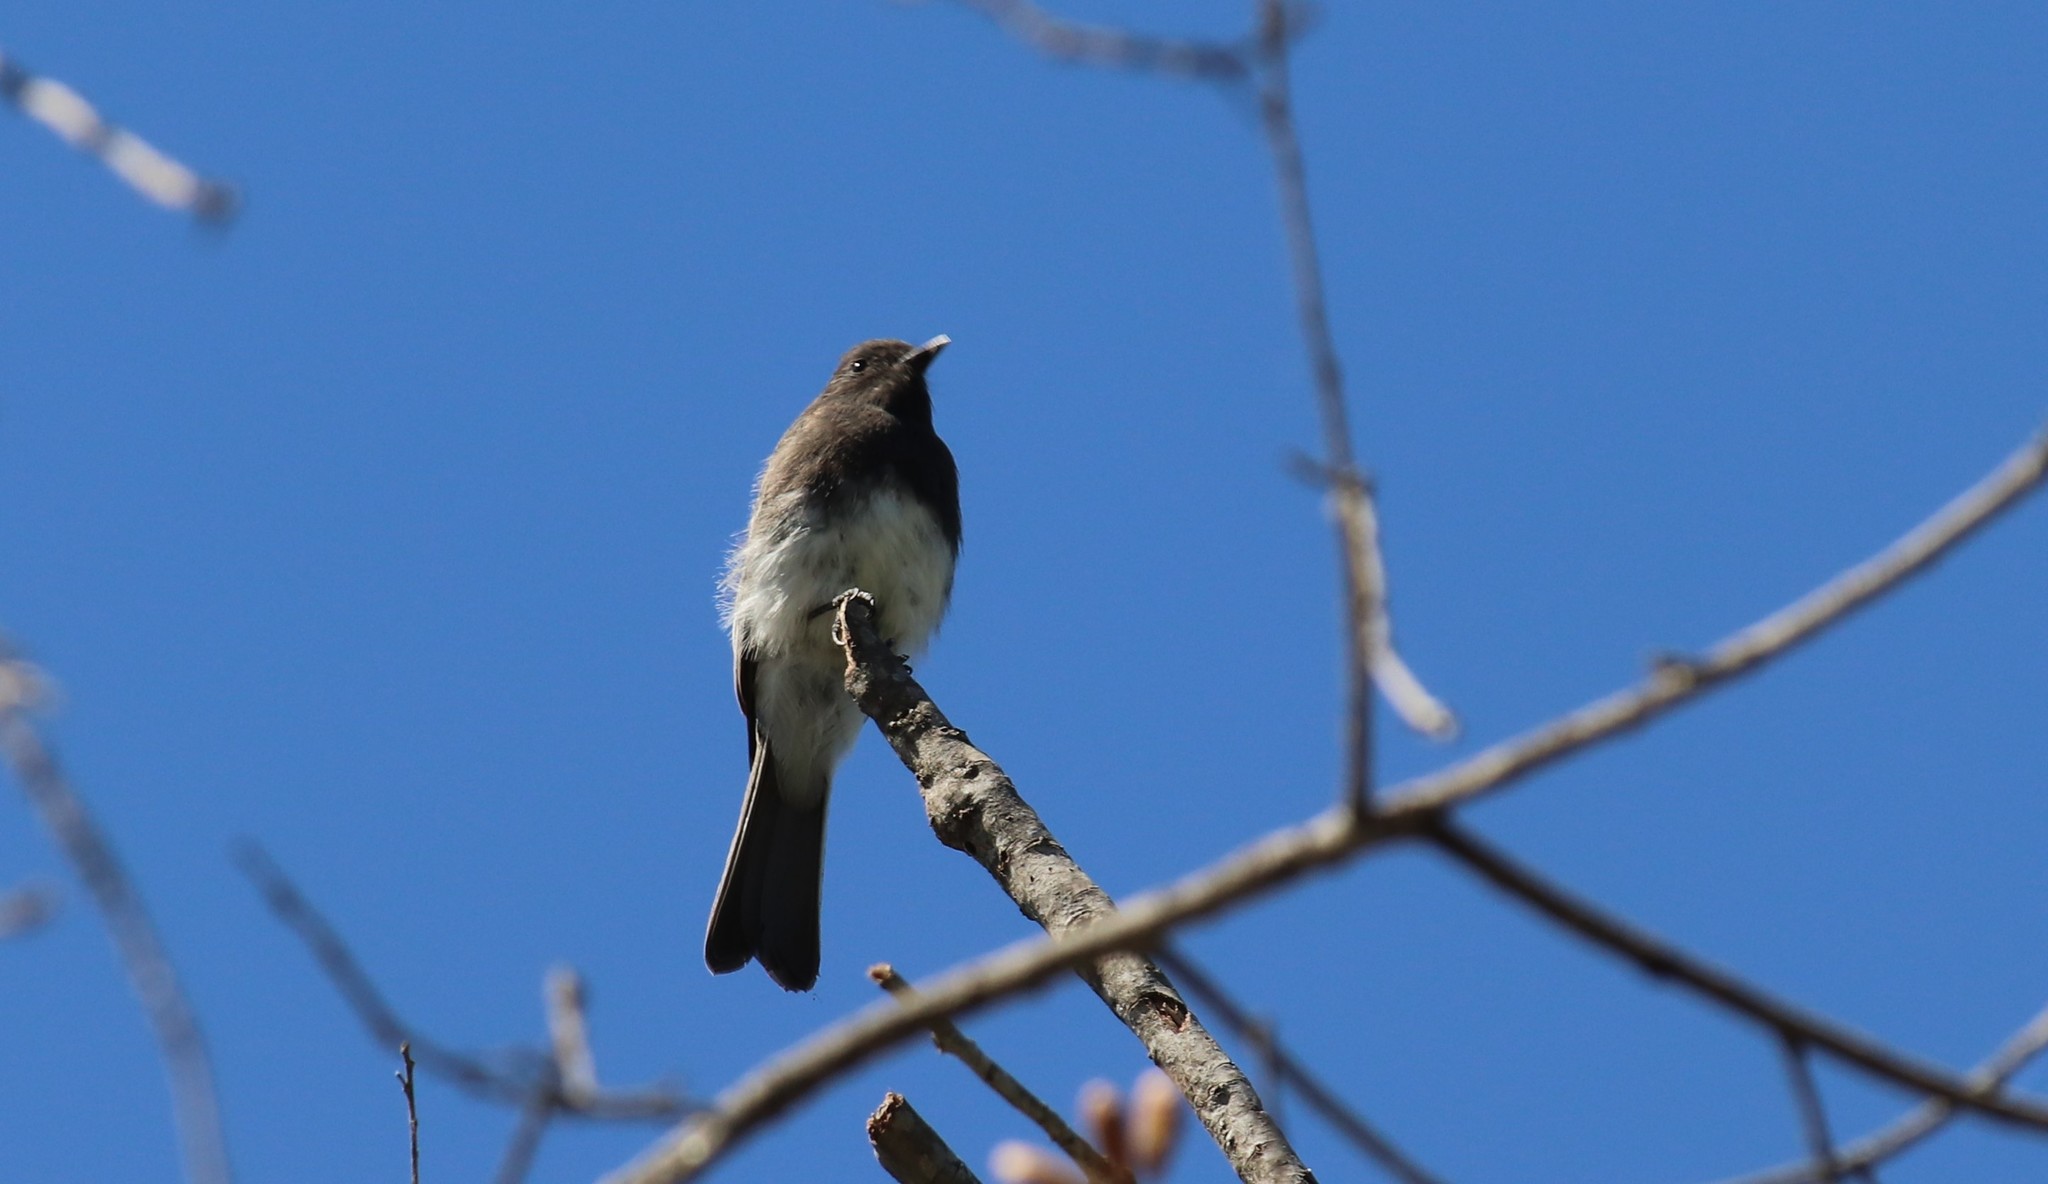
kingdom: Animalia
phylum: Chordata
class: Aves
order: Passeriformes
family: Tyrannidae
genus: Sayornis
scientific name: Sayornis nigricans
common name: Black phoebe
